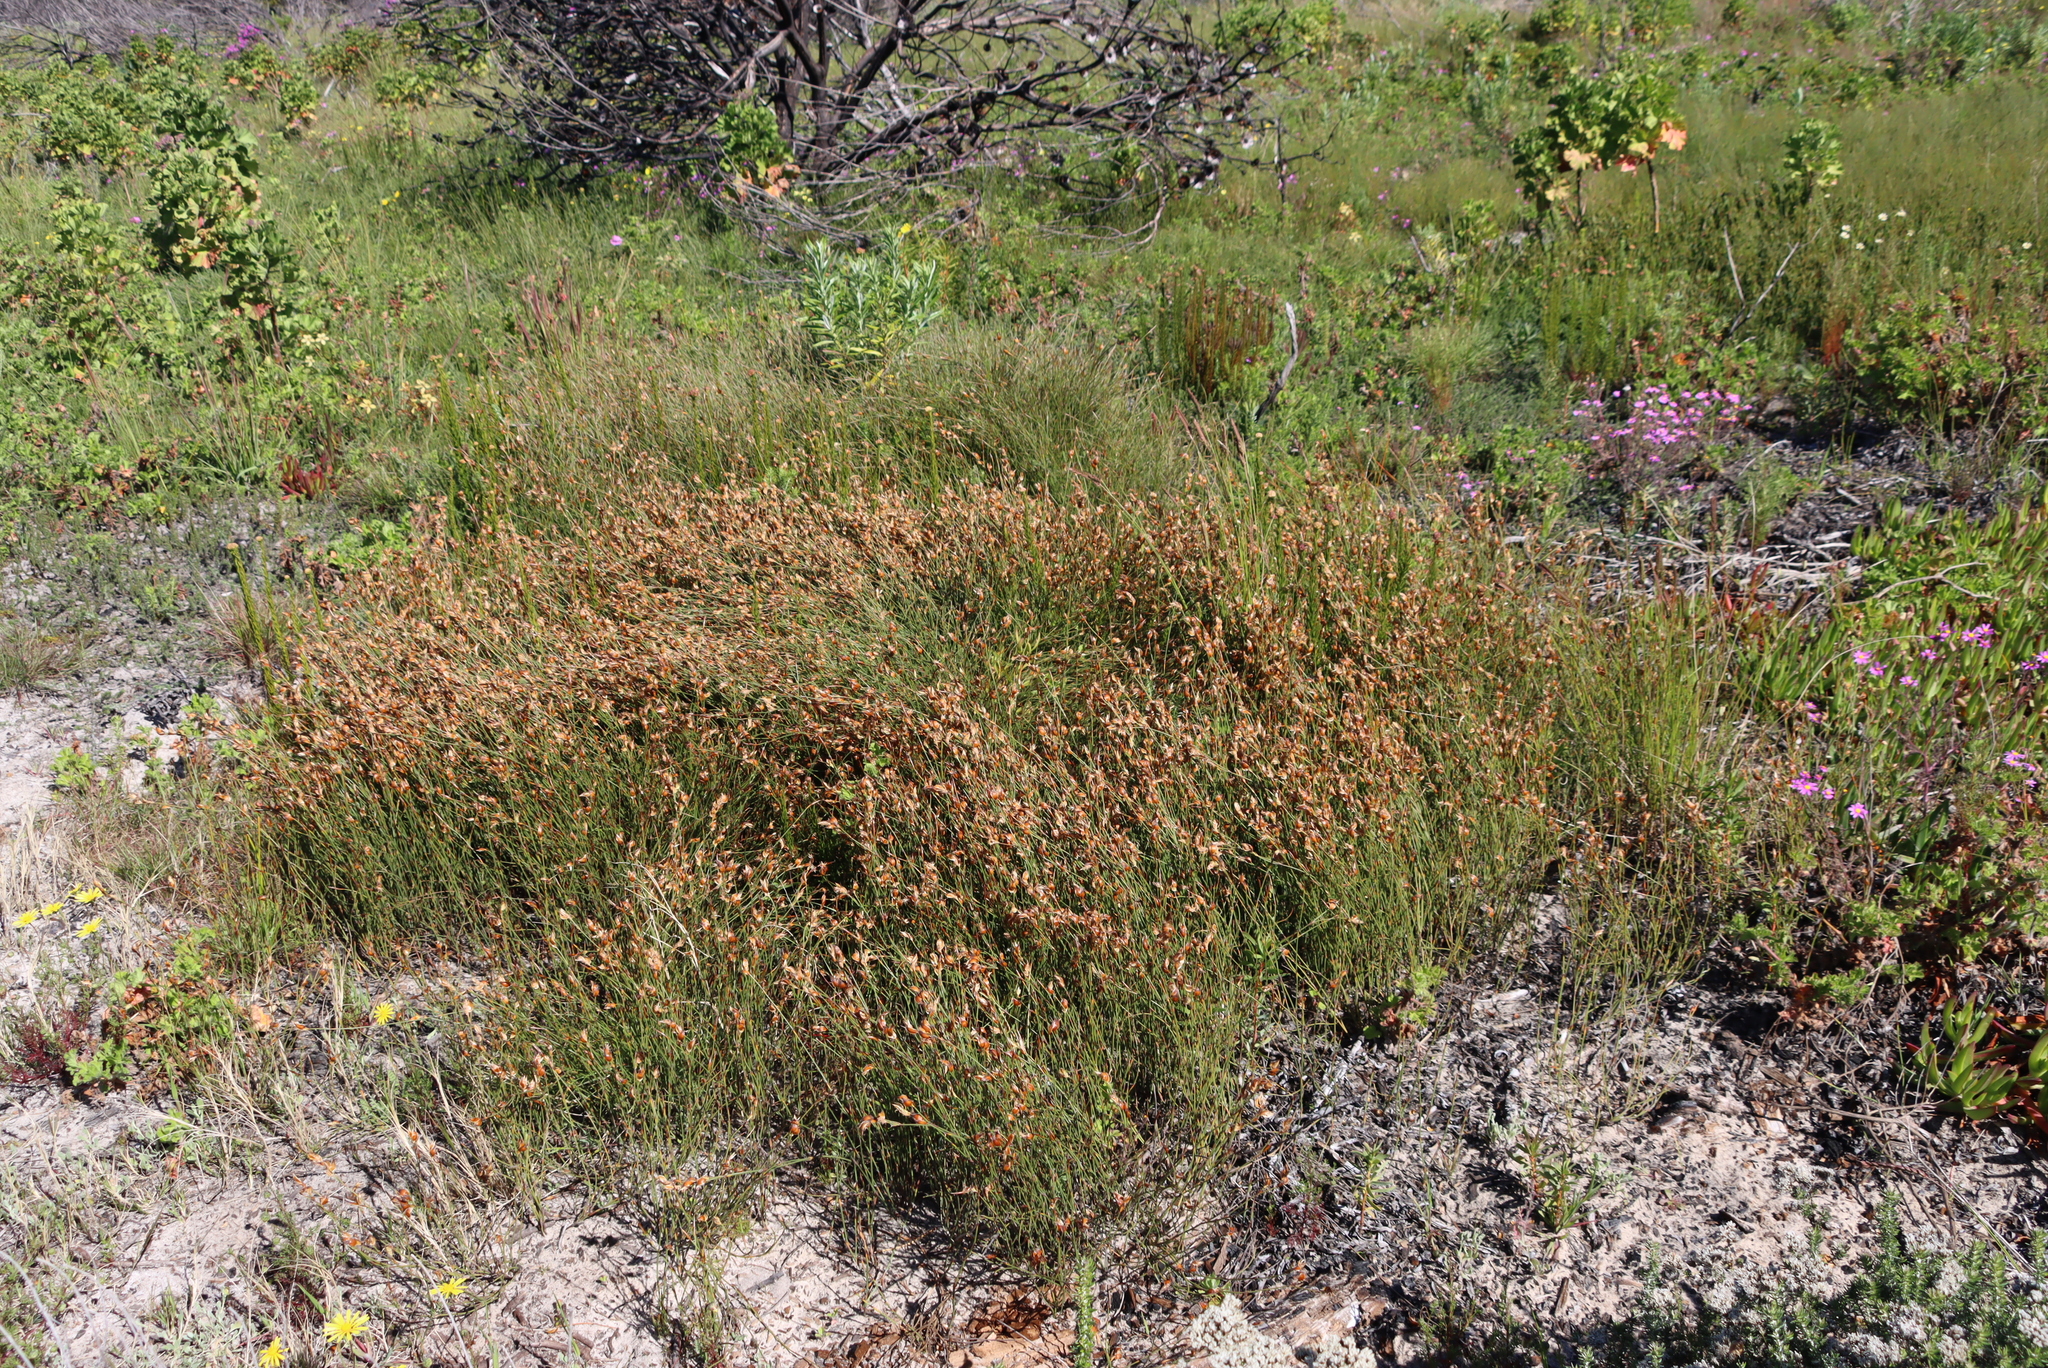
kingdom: Plantae
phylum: Tracheophyta
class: Liliopsida
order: Poales
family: Restionaceae
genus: Willdenowia
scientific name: Willdenowia sulcata
